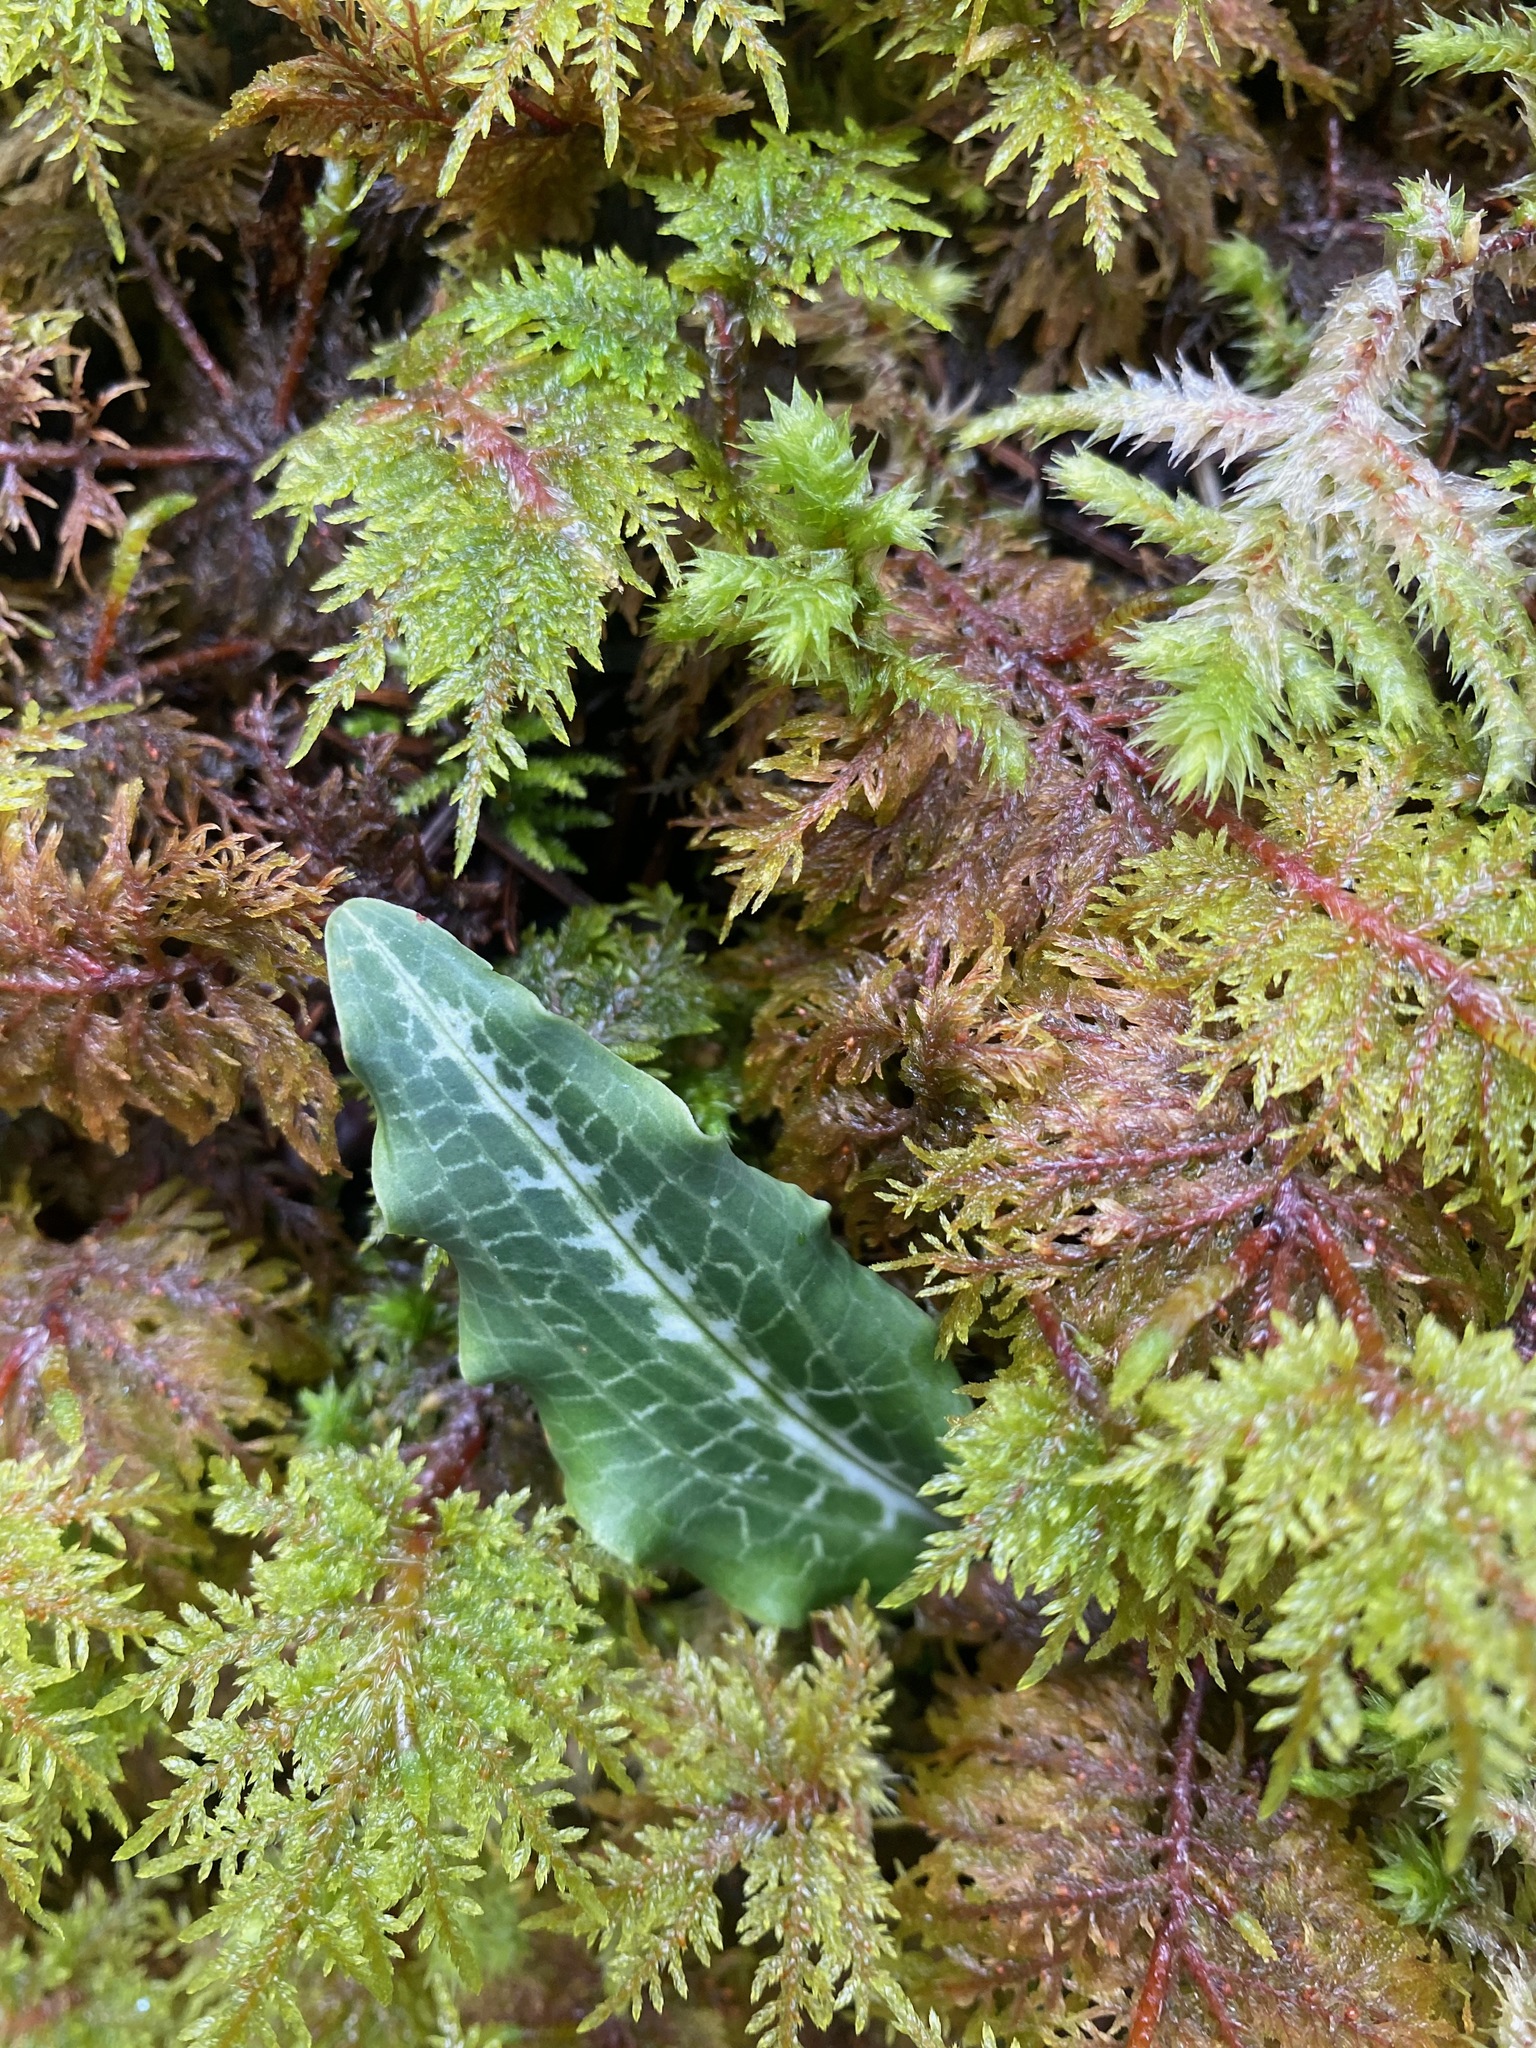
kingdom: Plantae
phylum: Tracheophyta
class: Liliopsida
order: Asparagales
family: Orchidaceae
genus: Goodyera
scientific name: Goodyera oblongifolia
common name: Giant rattlesnake-plantain
